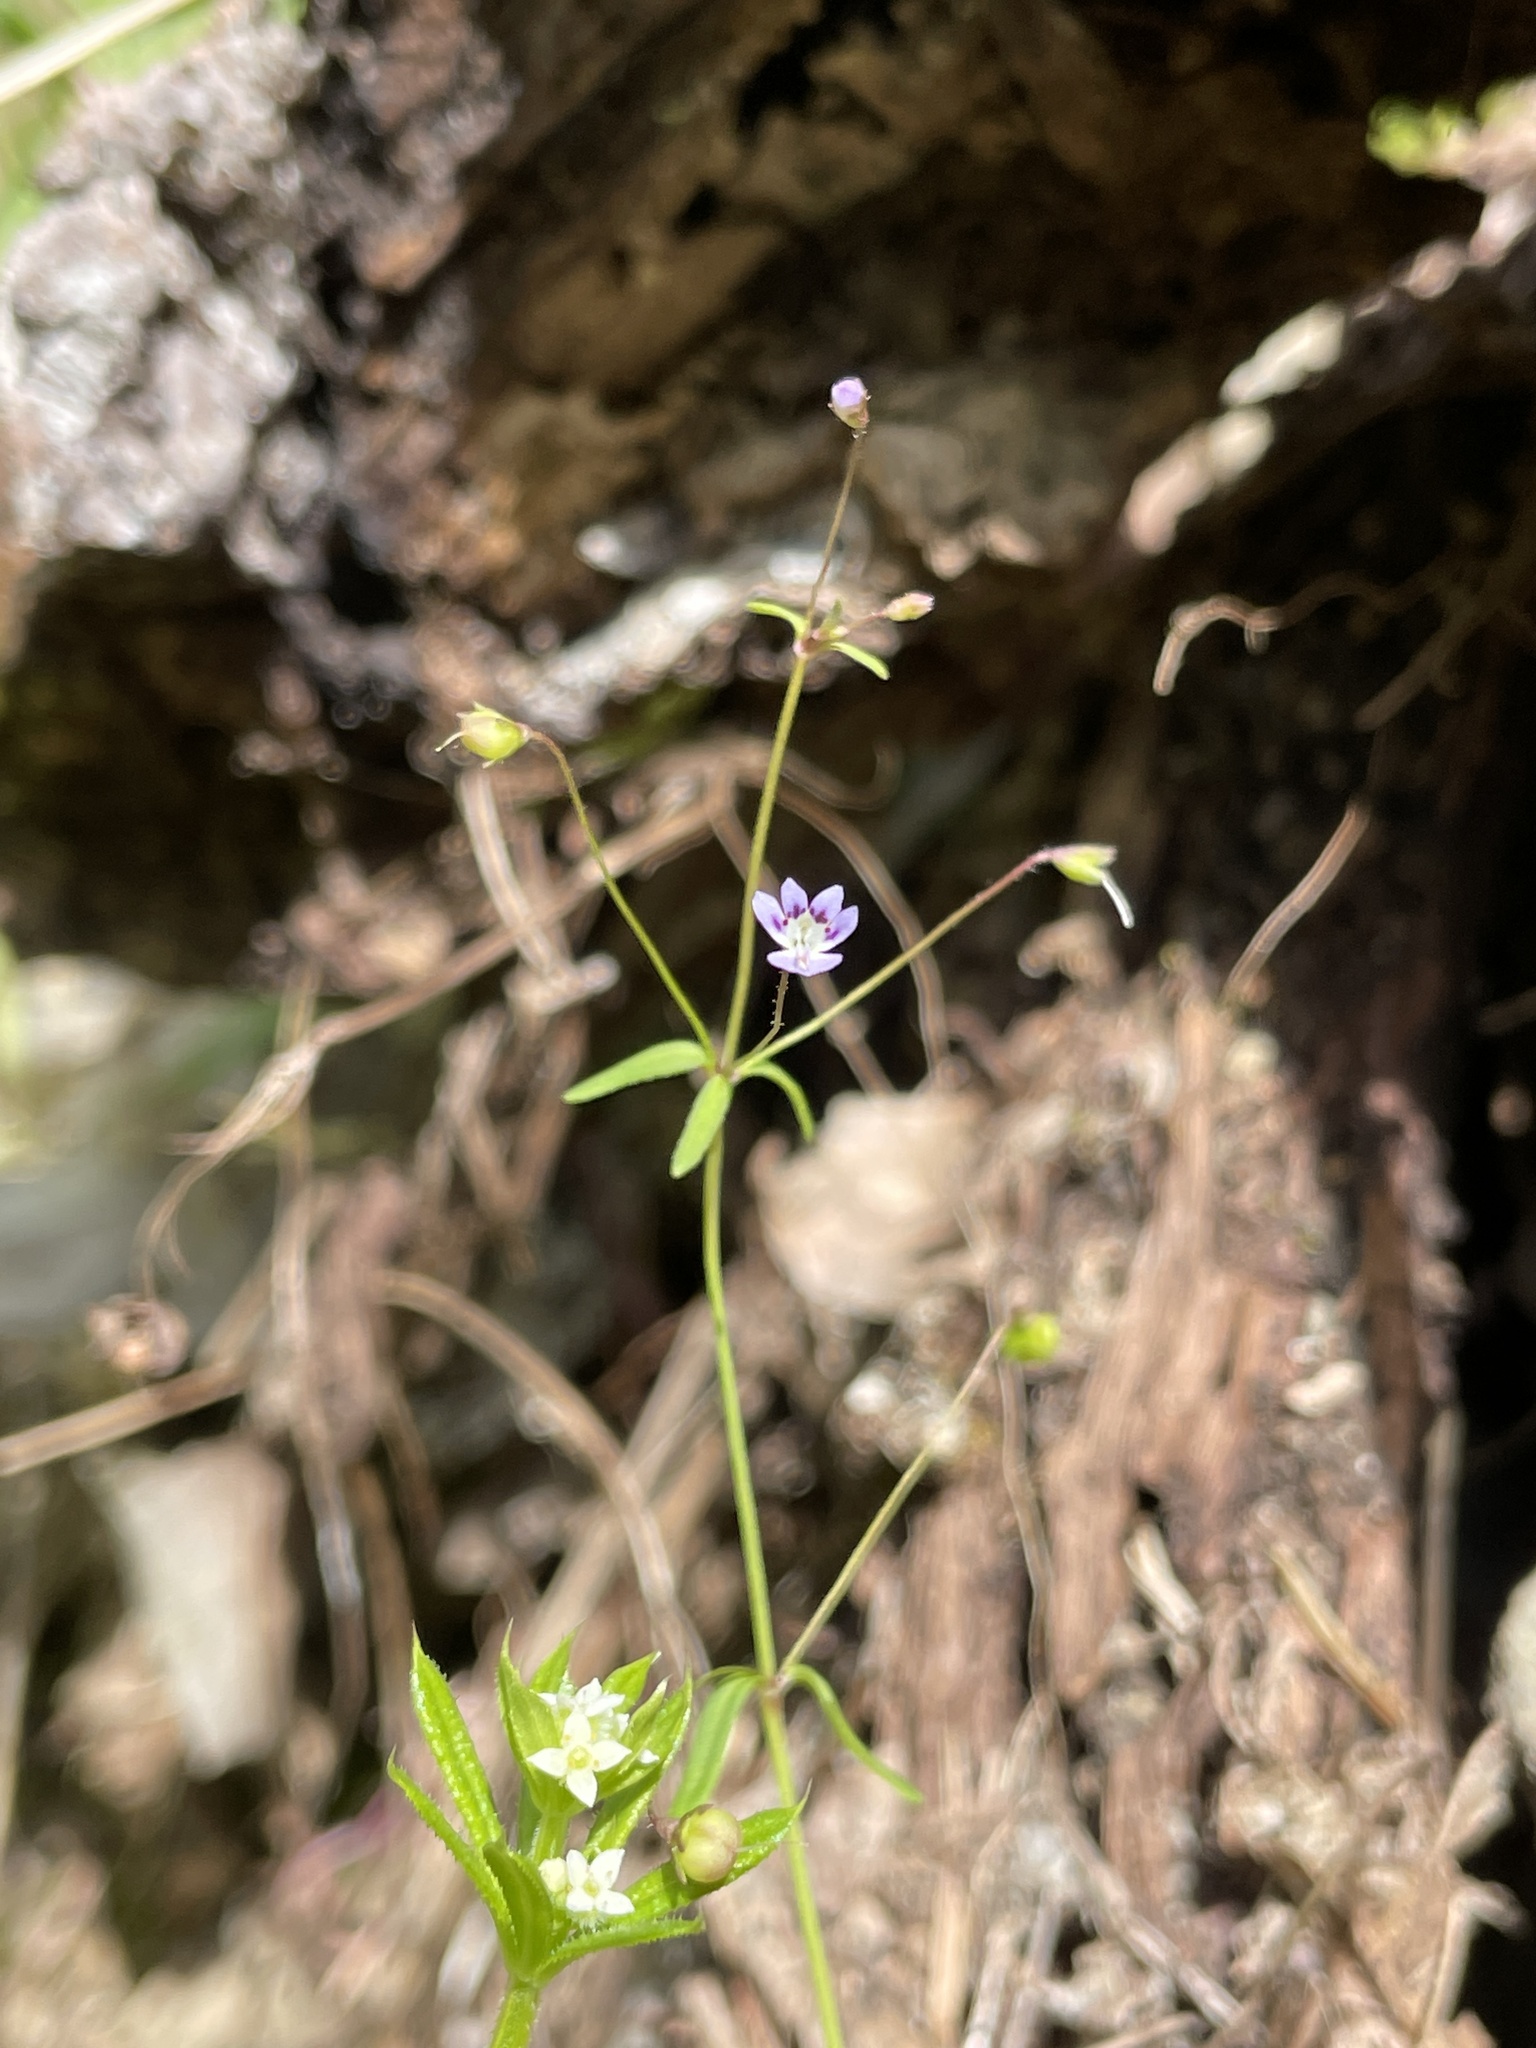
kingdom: Plantae
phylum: Tracheophyta
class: Magnoliopsida
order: Lamiales
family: Plantaginaceae
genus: Tonella
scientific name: Tonella tenella
